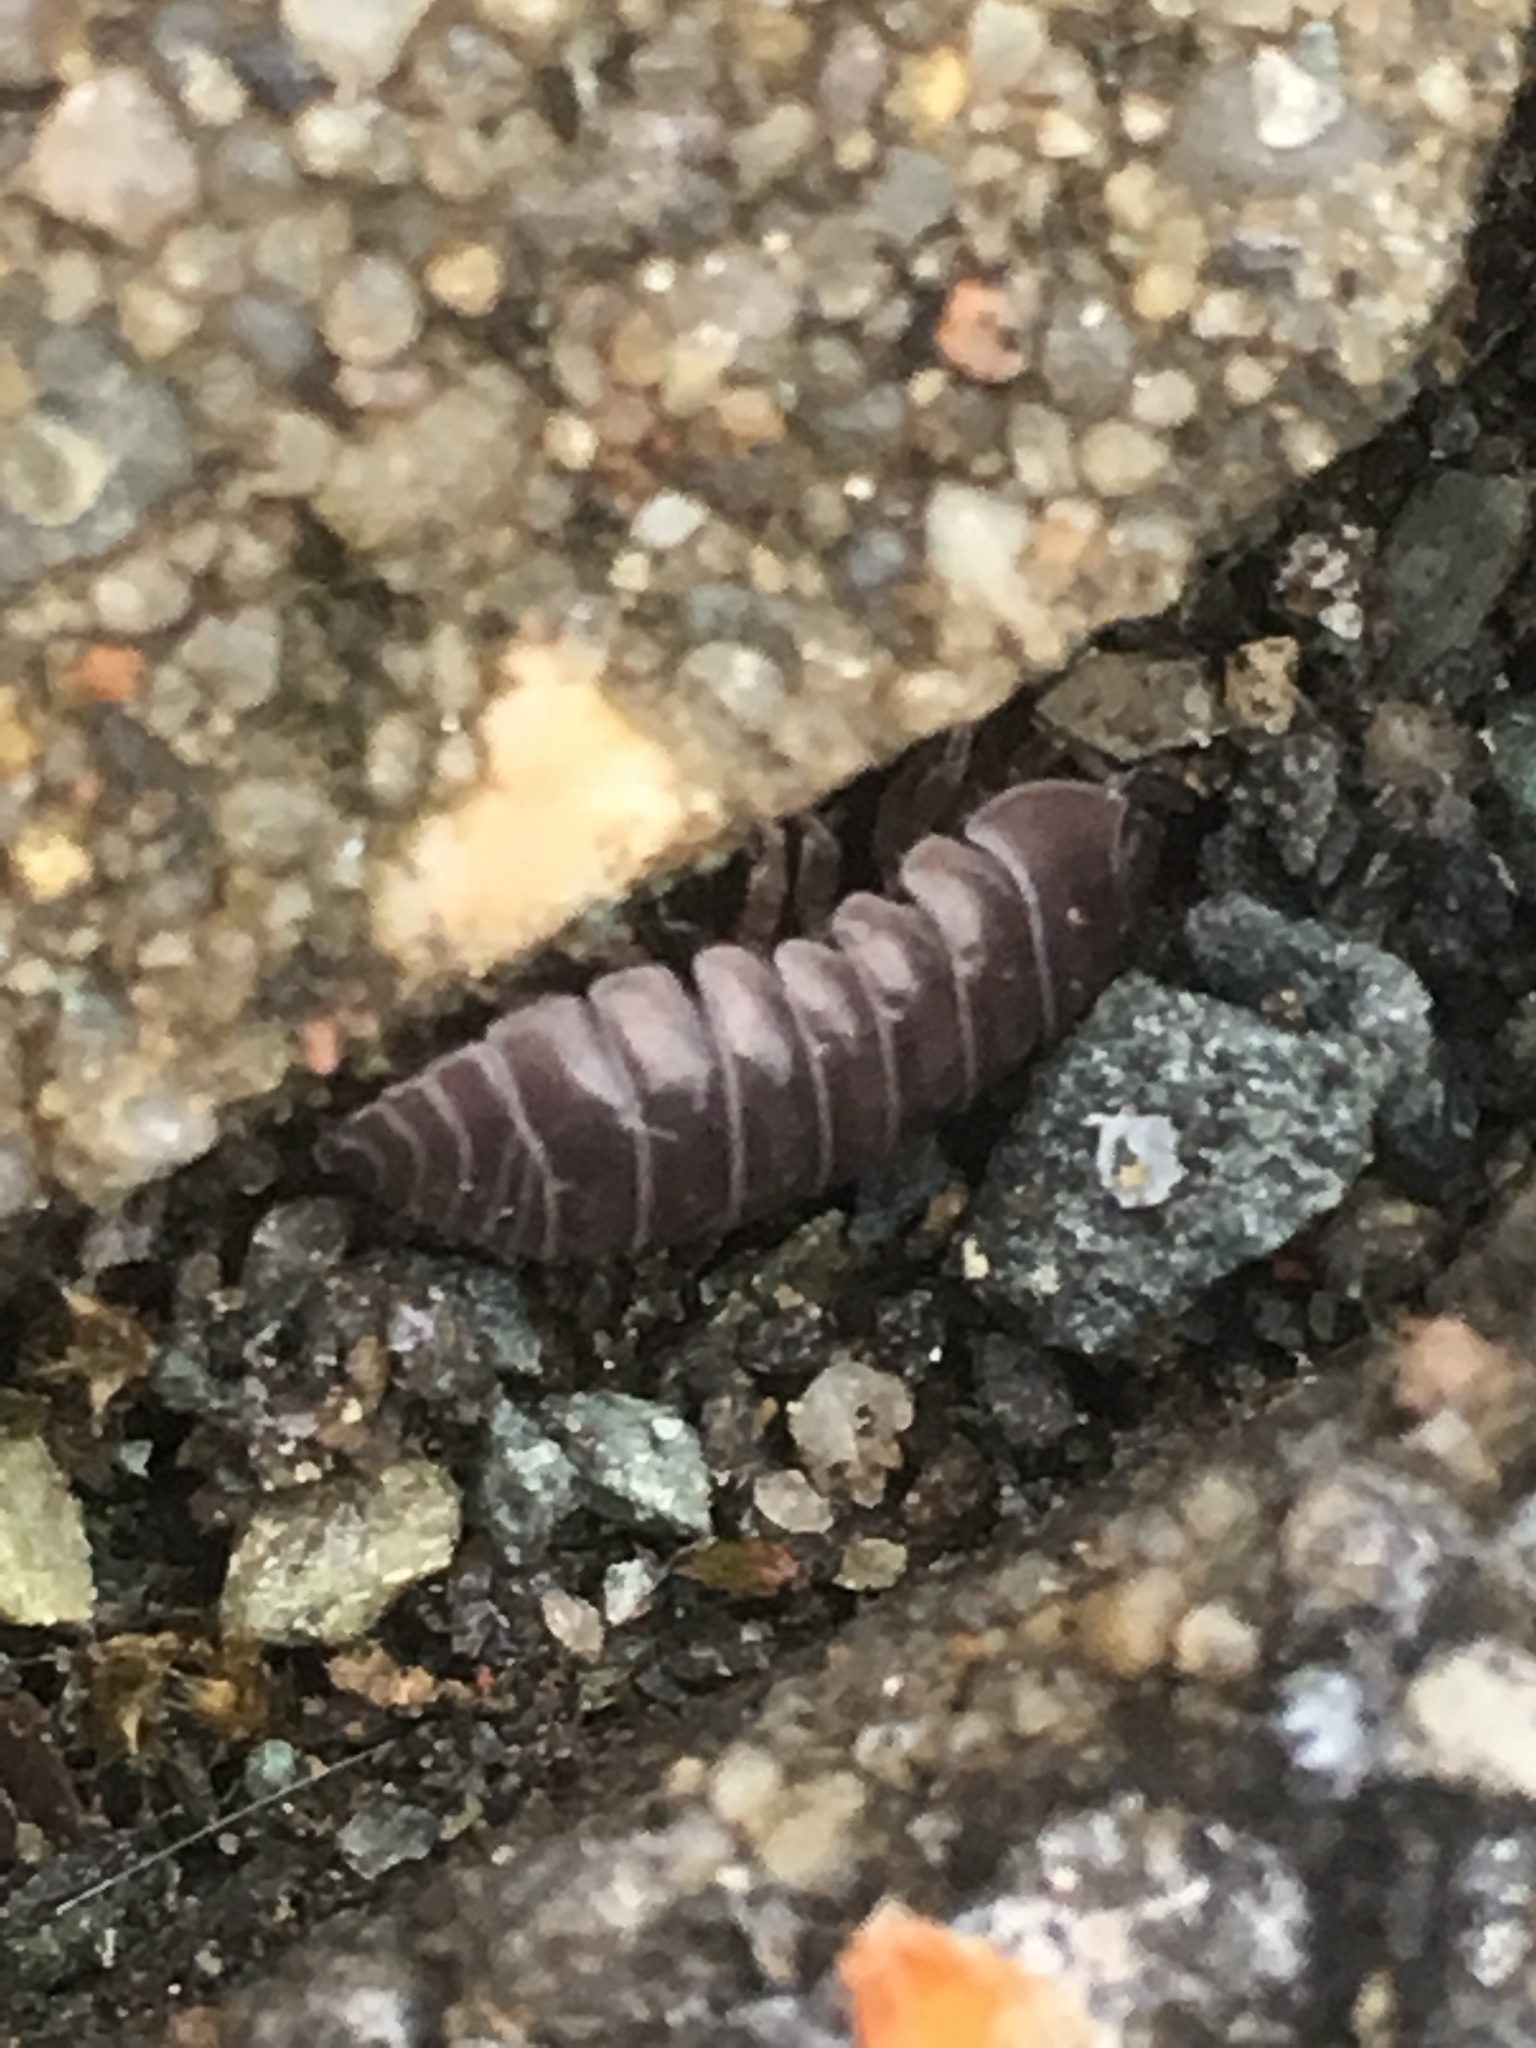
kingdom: Animalia
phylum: Arthropoda
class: Malacostraca
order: Isopoda
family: Armadillidiidae
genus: Armadillidium
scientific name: Armadillidium vulgare
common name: Common pill woodlouse
